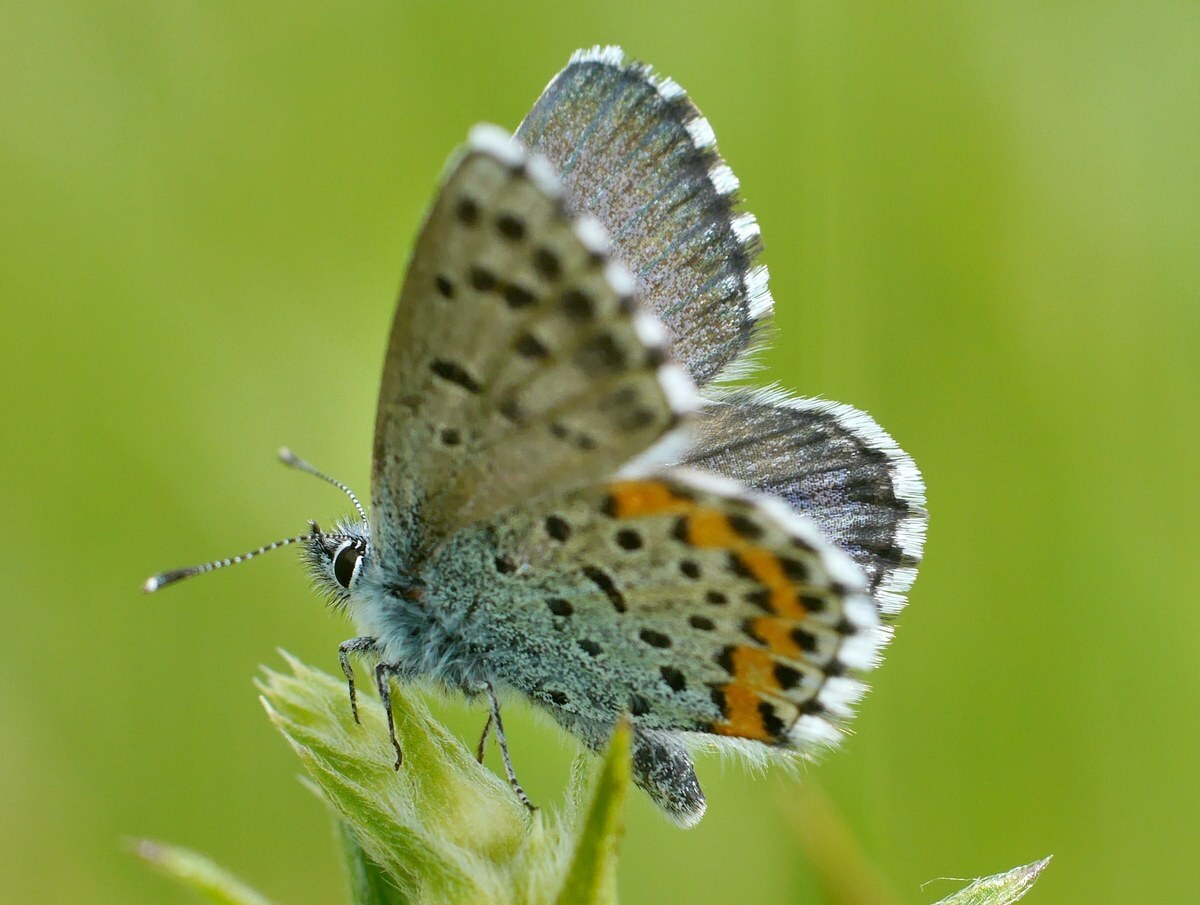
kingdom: Animalia
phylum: Arthropoda
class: Insecta
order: Lepidoptera
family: Lycaenidae
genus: Pseudophilotes
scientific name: Pseudophilotes bavius
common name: Bavius blue
